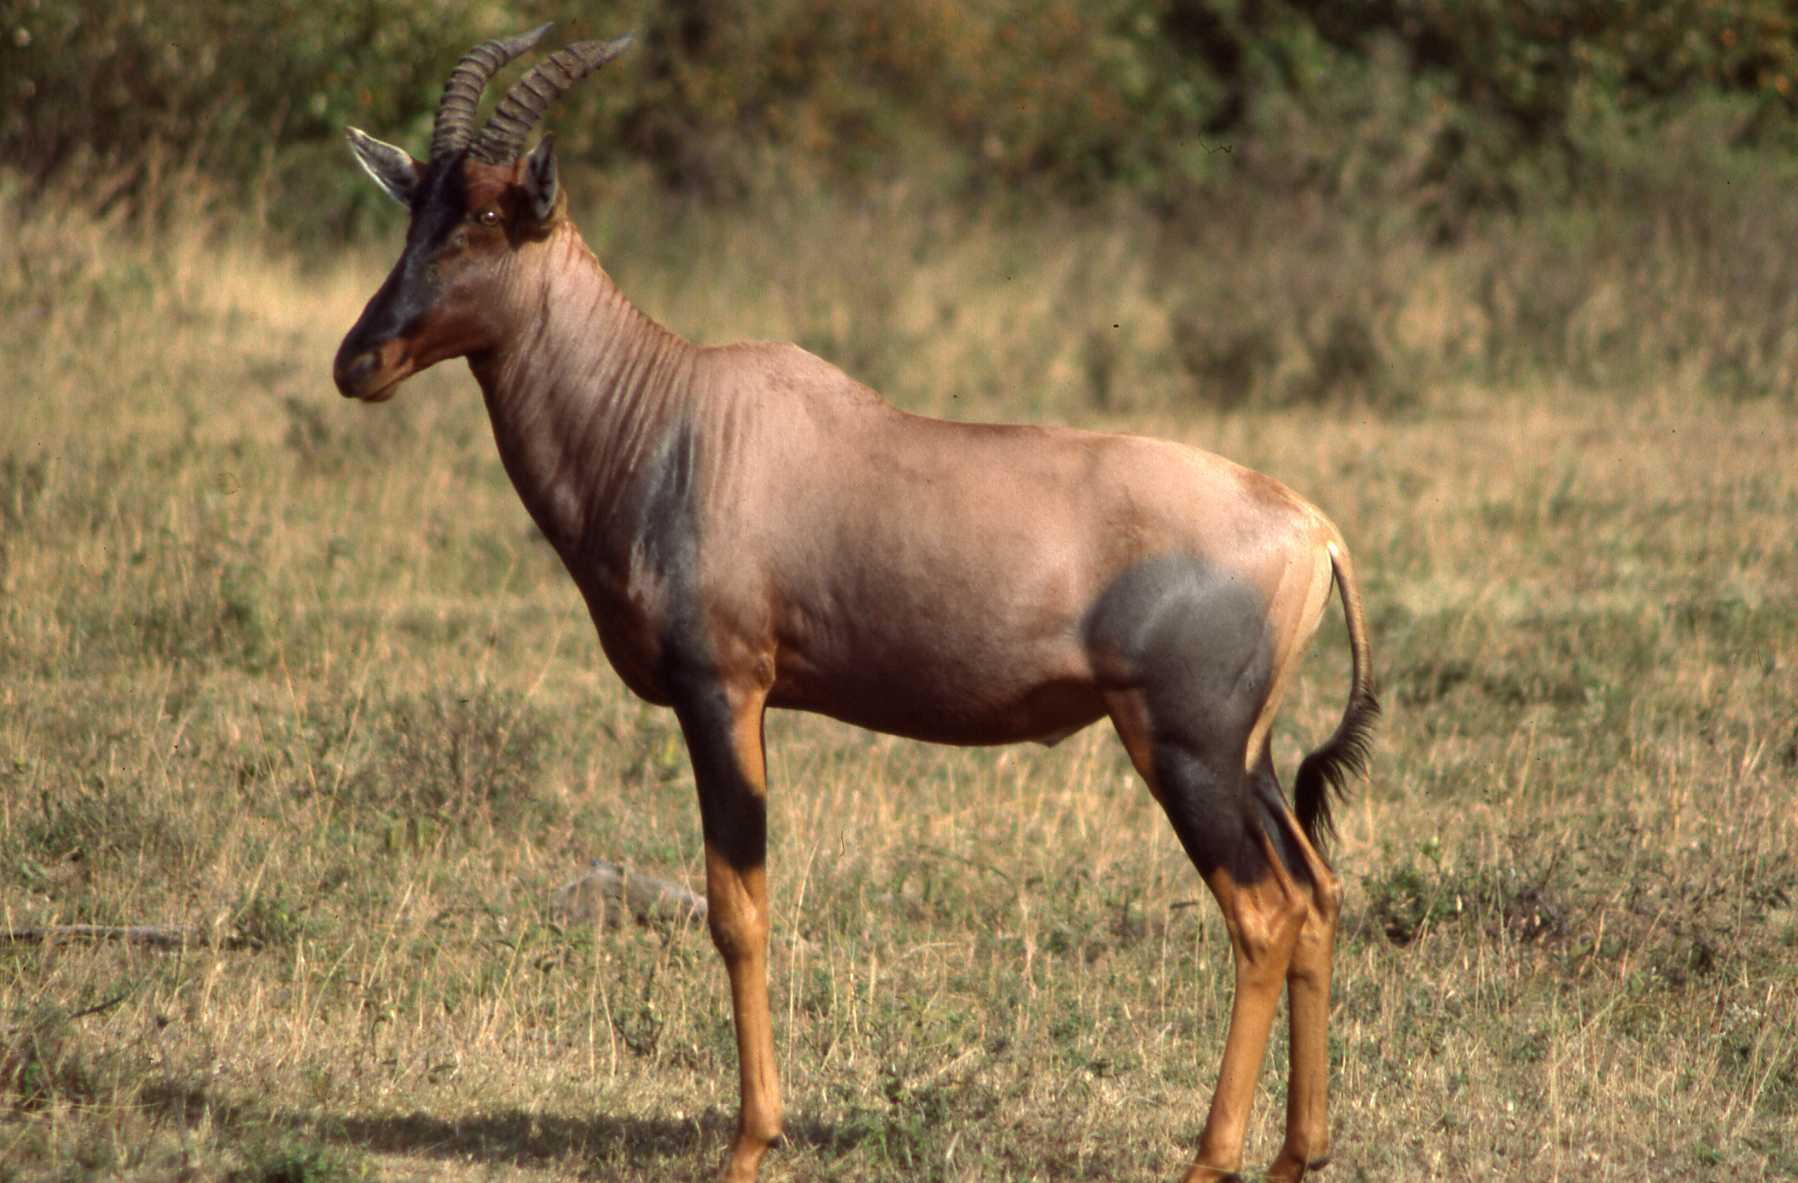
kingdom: Animalia
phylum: Chordata
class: Mammalia
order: Artiodactyla
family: Bovidae
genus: Damaliscus
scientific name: Damaliscus korrigum
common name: Topi
